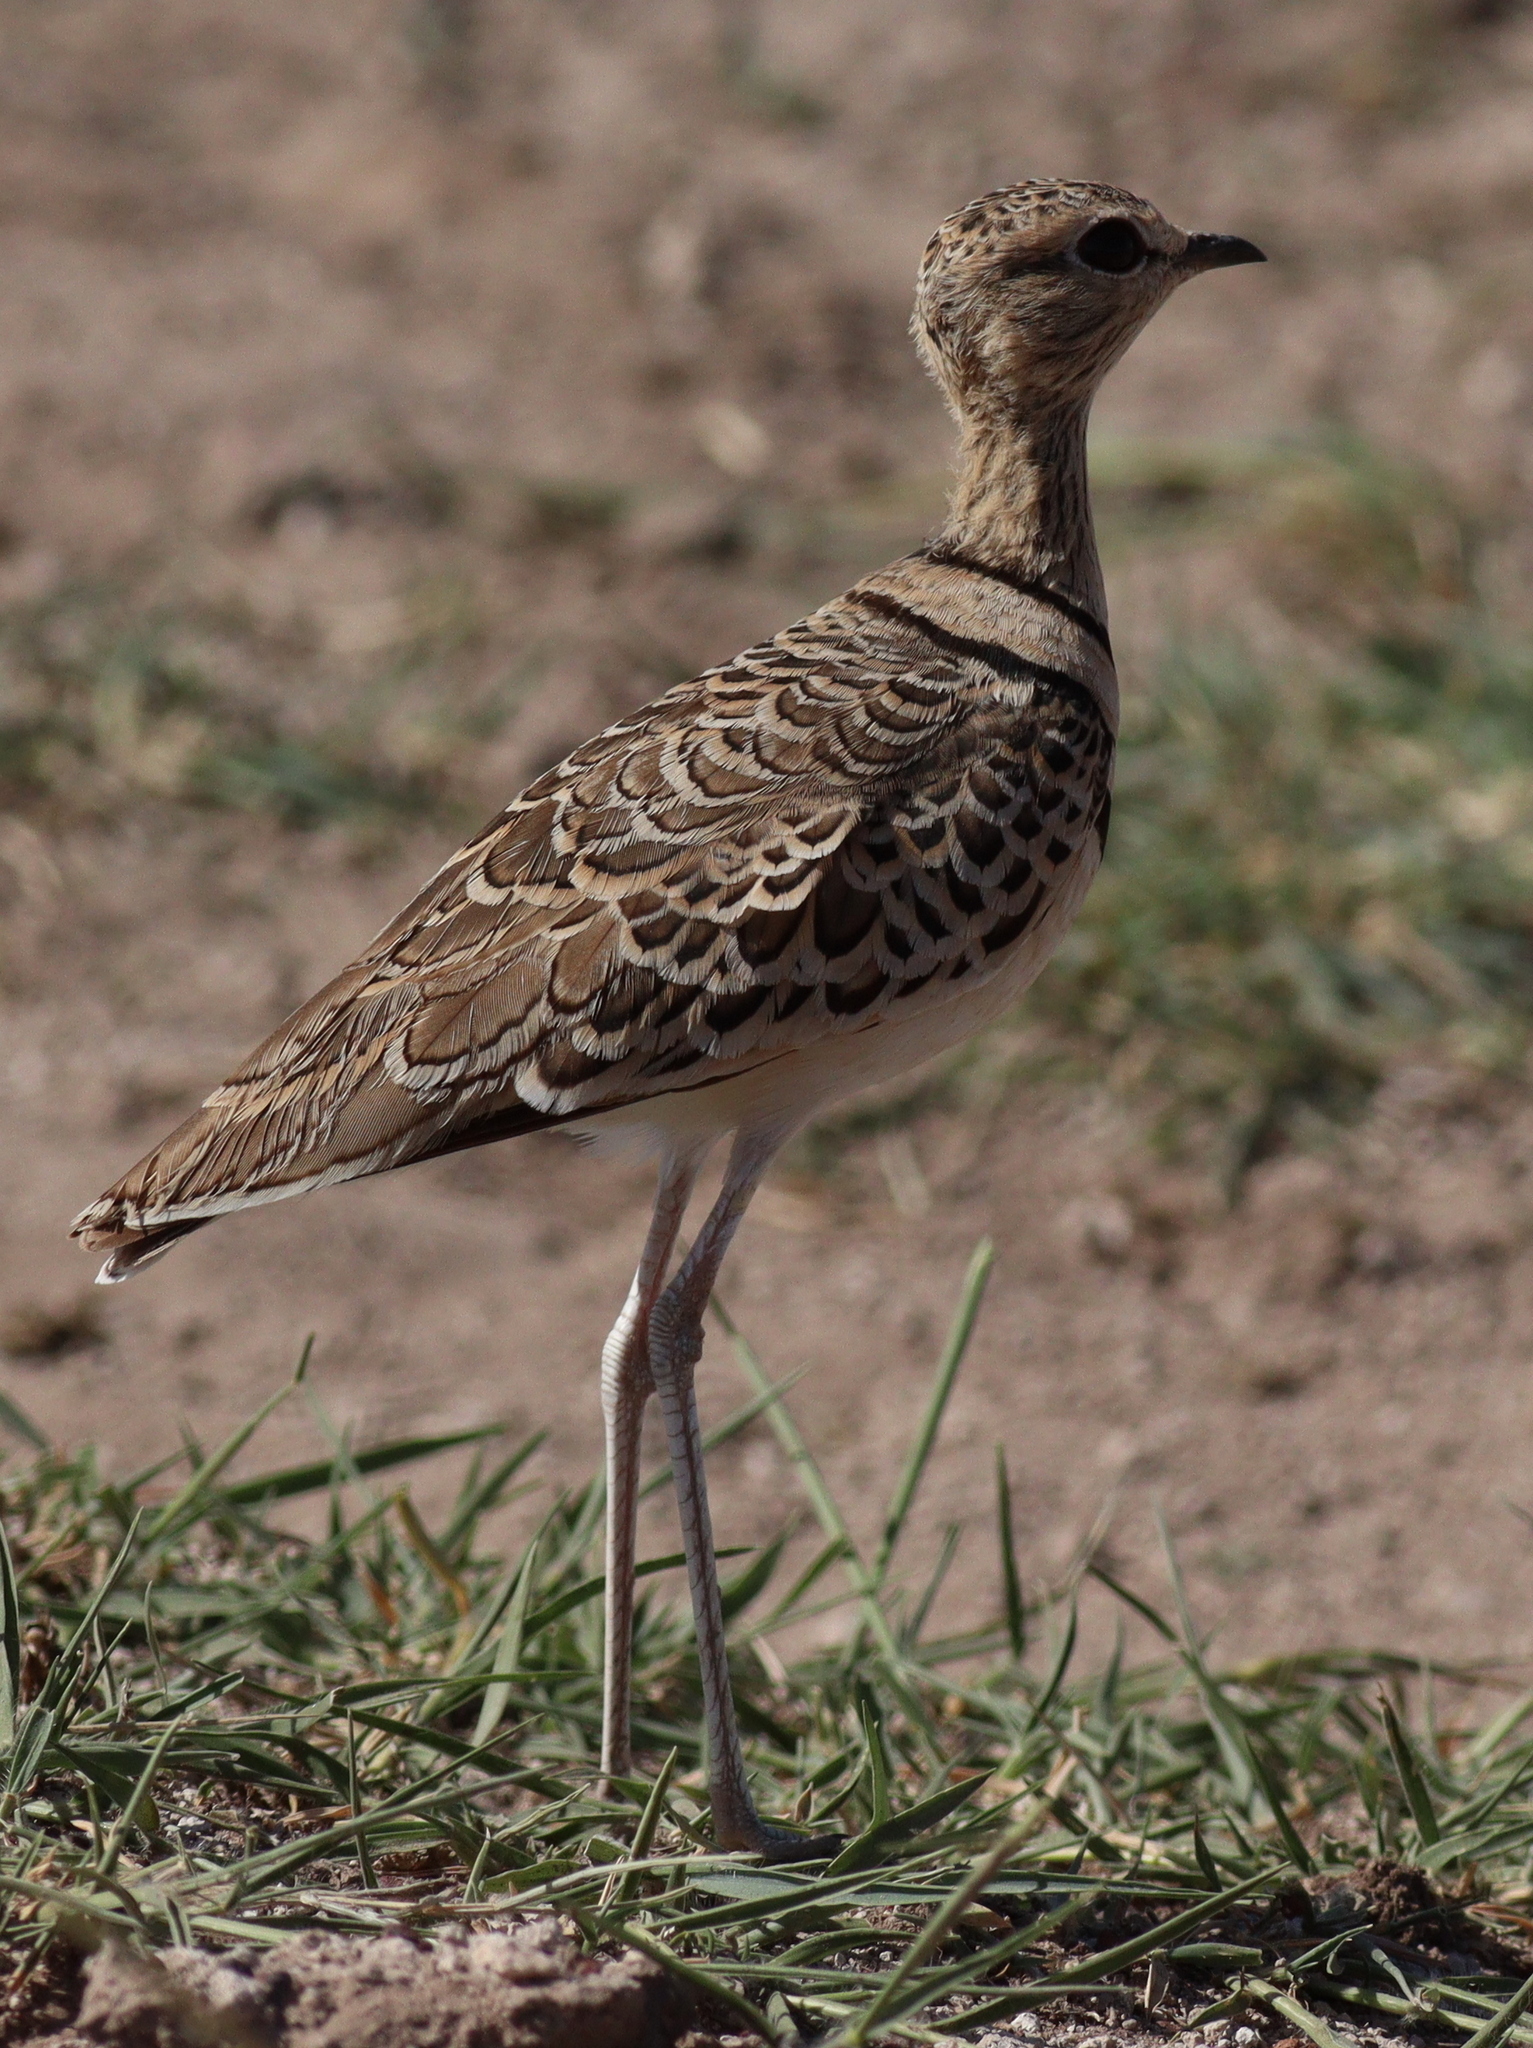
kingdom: Animalia
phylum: Chordata
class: Aves
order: Charadriiformes
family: Glareolidae
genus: Rhinoptilus
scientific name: Rhinoptilus africanus
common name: Double-banded courser
